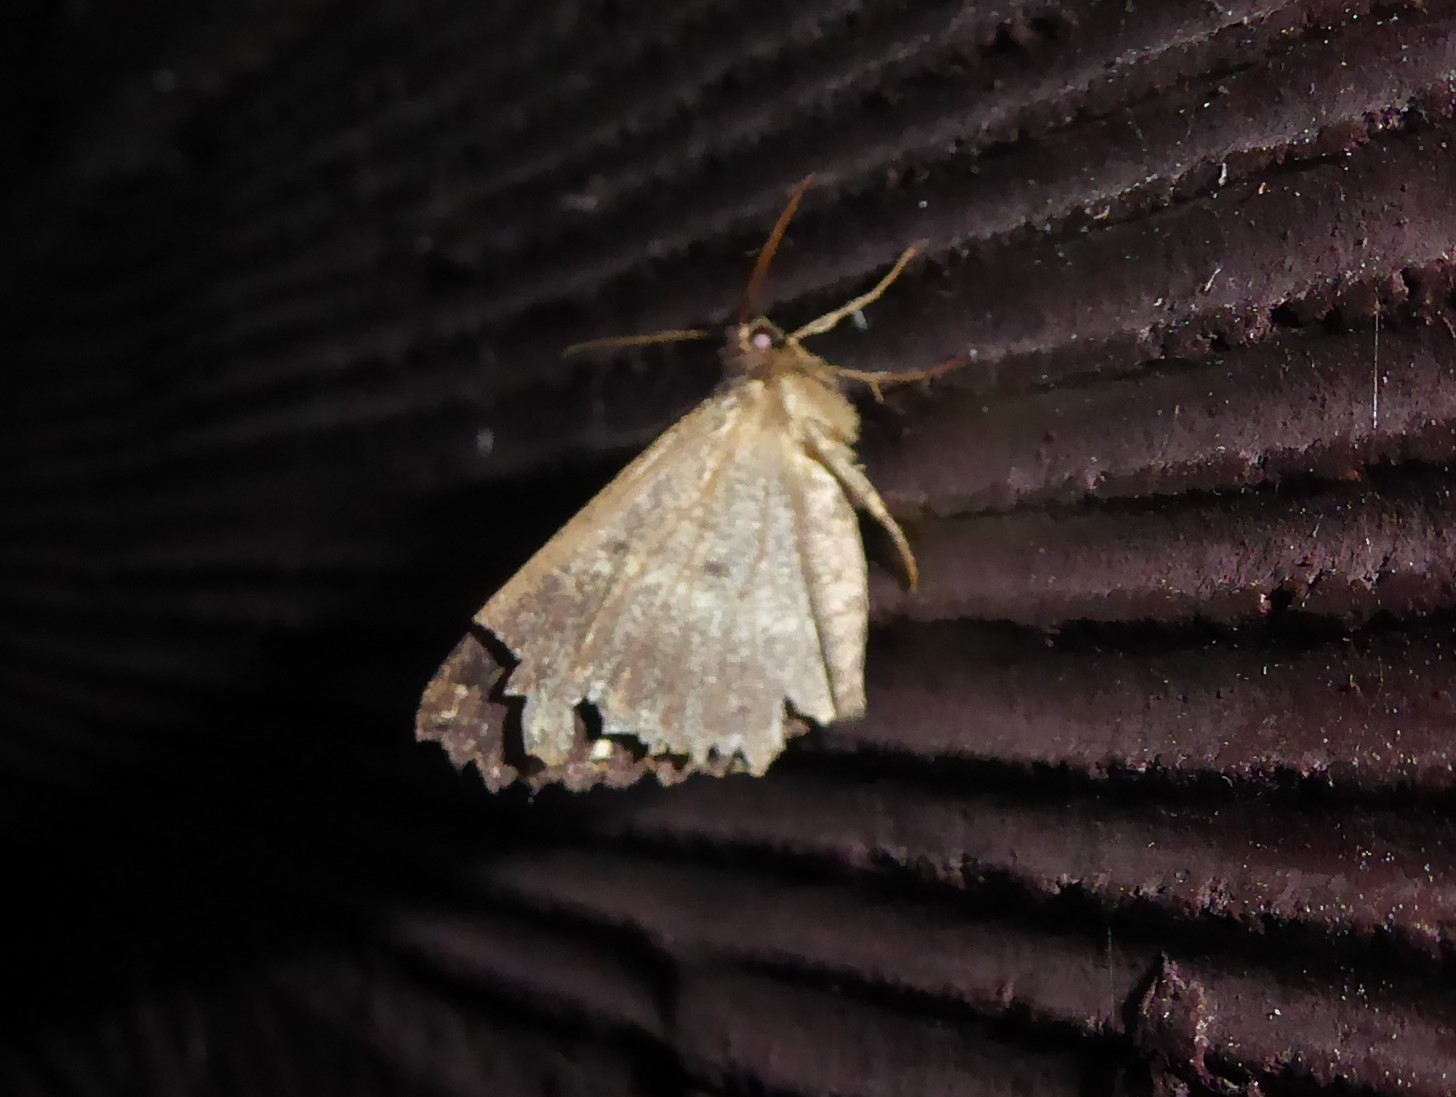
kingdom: Animalia
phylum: Arthropoda
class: Insecta
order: Lepidoptera
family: Geometridae
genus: Gellonia
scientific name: Gellonia dejectaria
